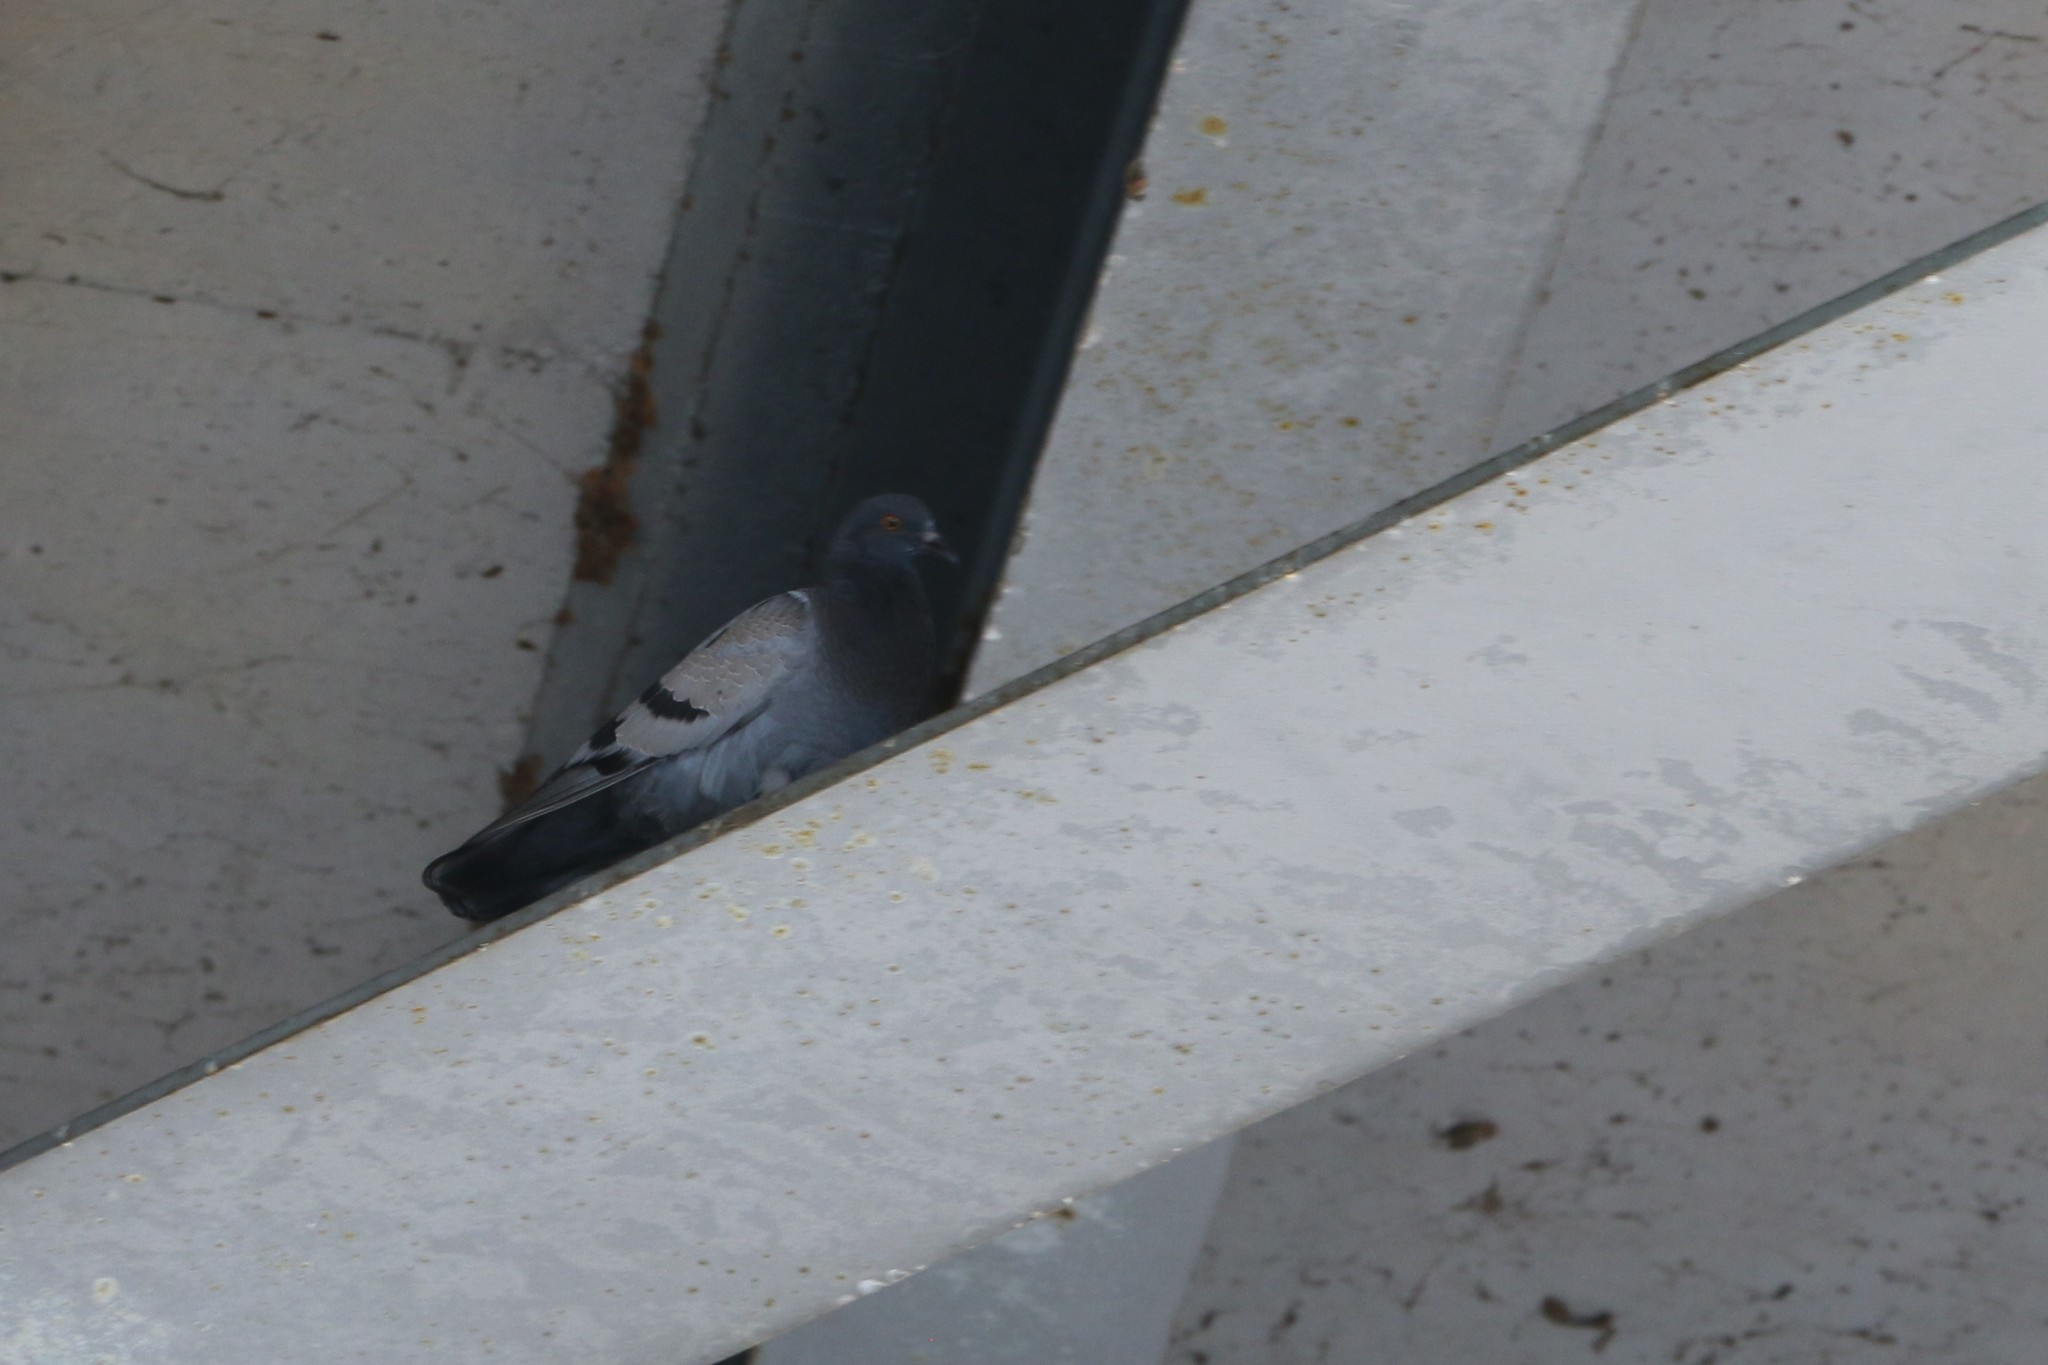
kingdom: Animalia
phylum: Chordata
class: Aves
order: Columbiformes
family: Columbidae
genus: Columba
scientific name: Columba livia
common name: Rock pigeon
